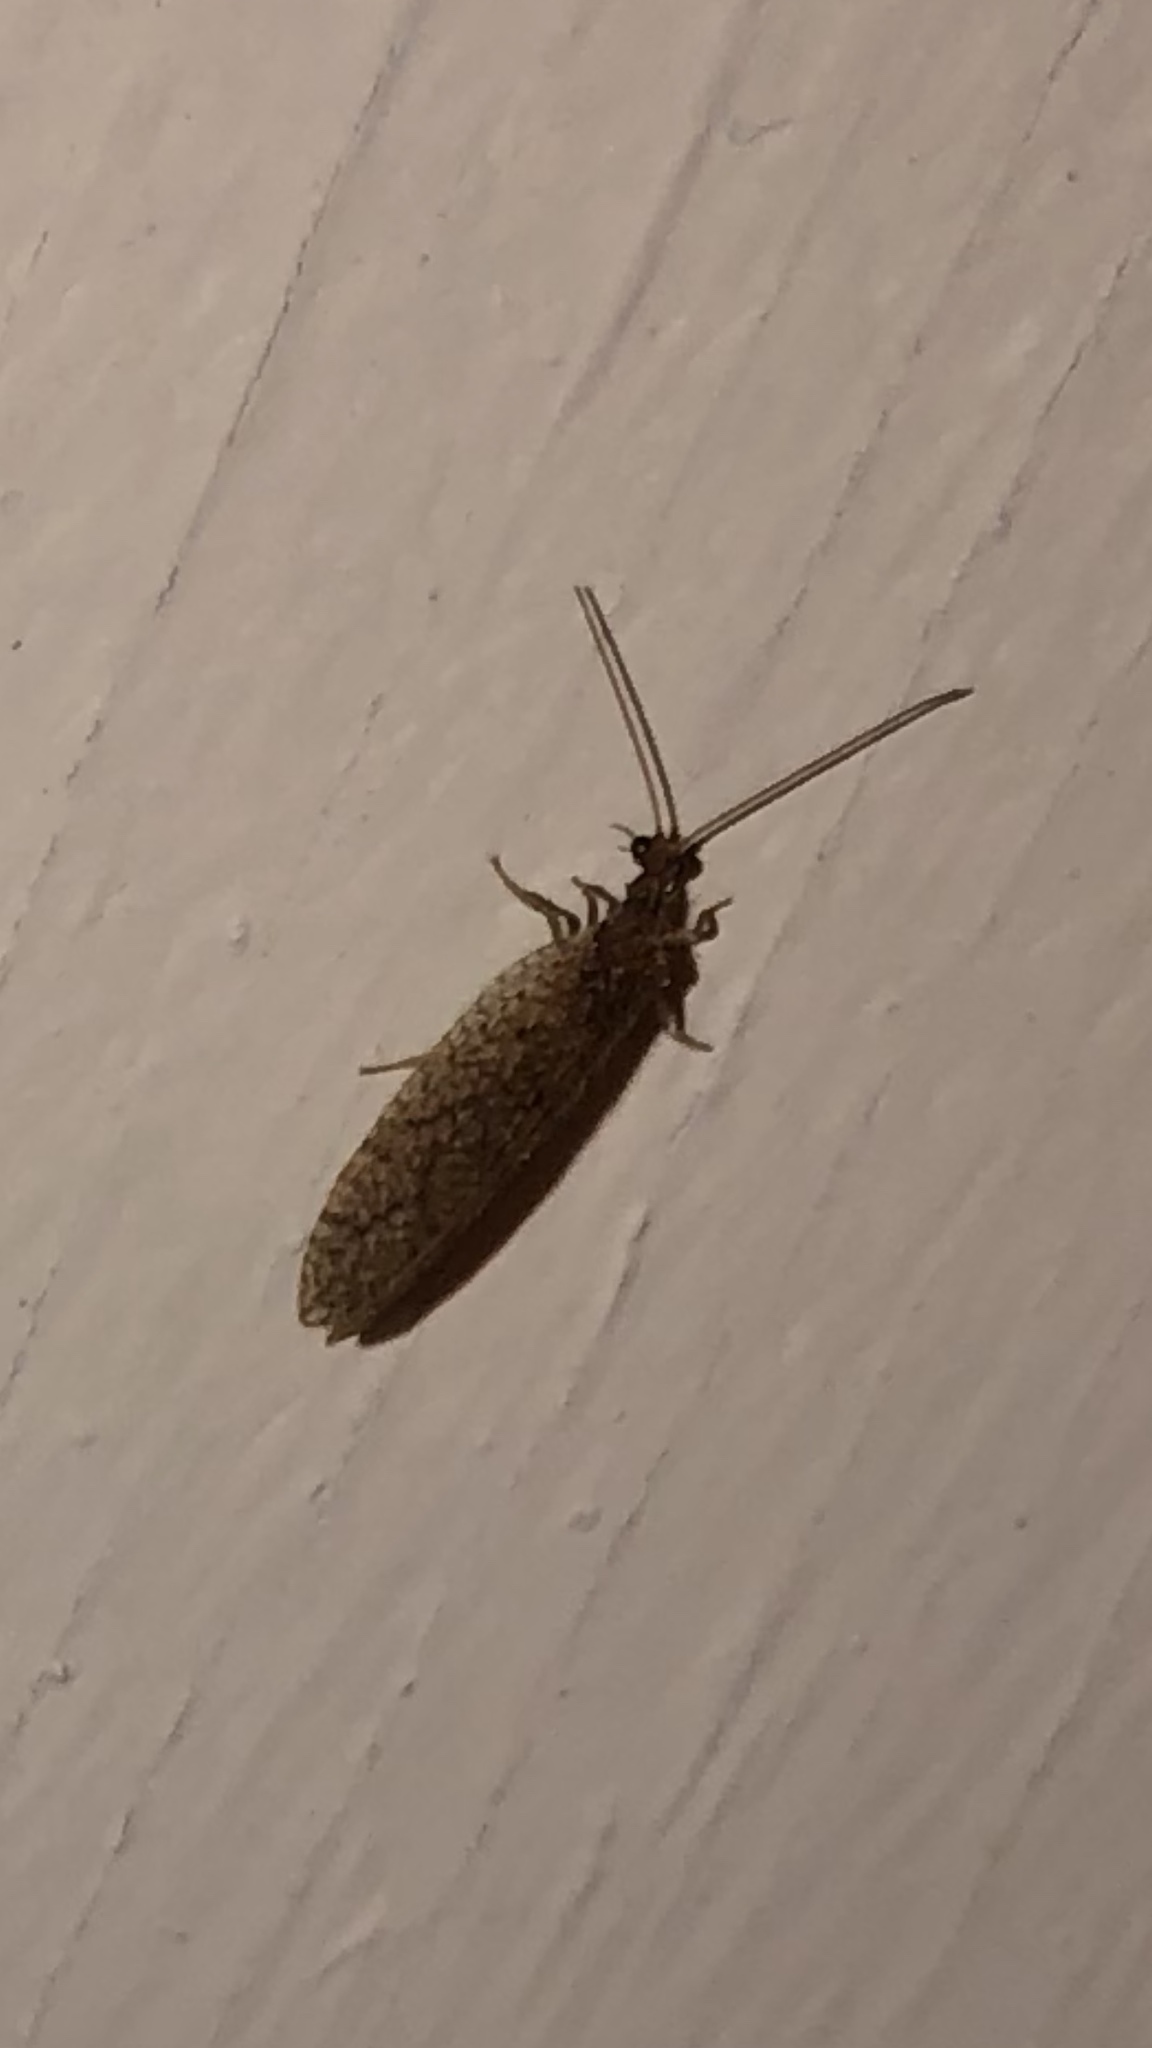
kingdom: Animalia
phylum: Arthropoda
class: Insecta
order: Neuroptera
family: Hemerobiidae
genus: Micromus
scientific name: Micromus posticus
